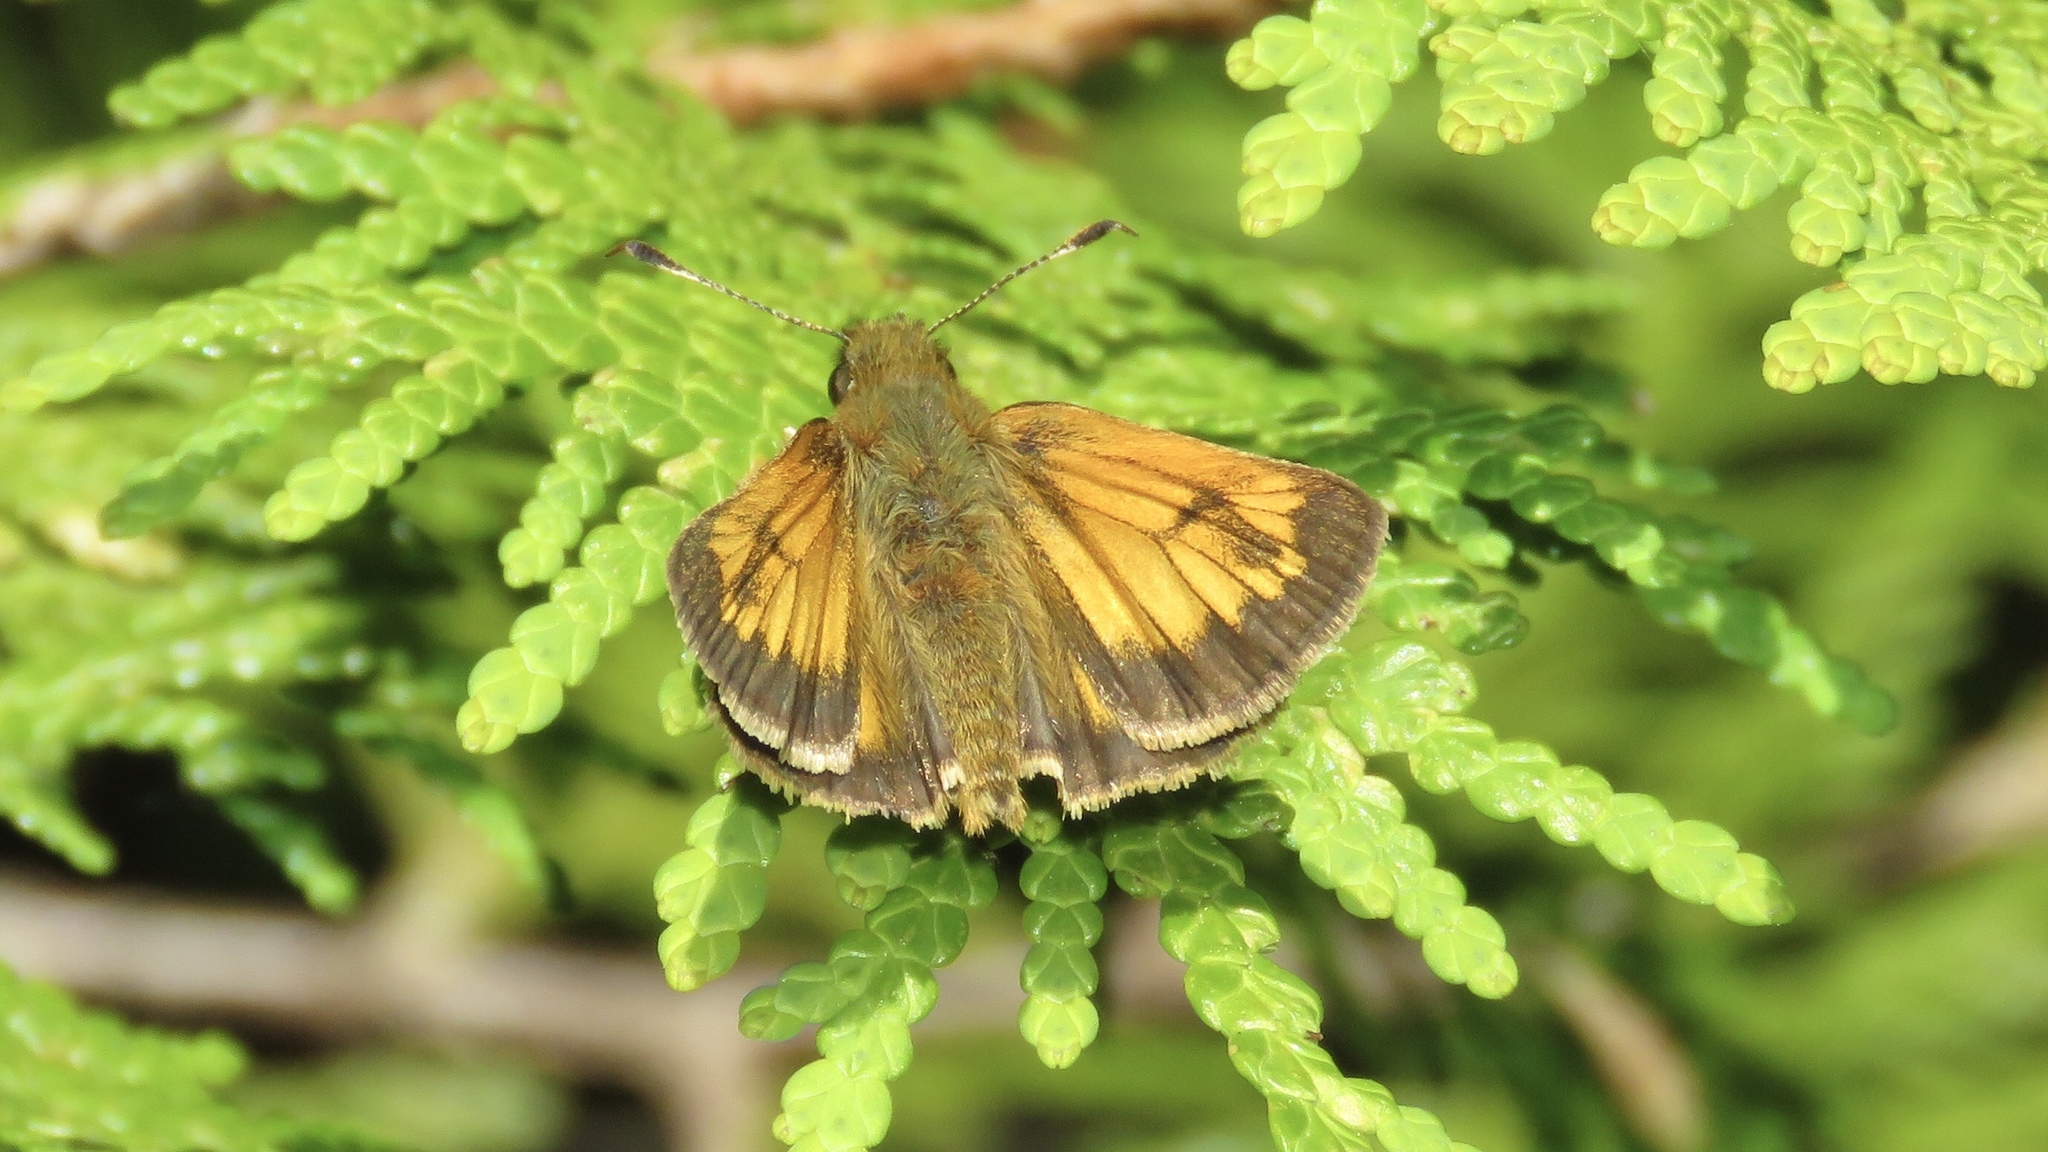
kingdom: Animalia
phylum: Arthropoda
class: Insecta
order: Lepidoptera
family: Hesperiidae
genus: Lon
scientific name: Lon hobomok
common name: Hobomok skipper
